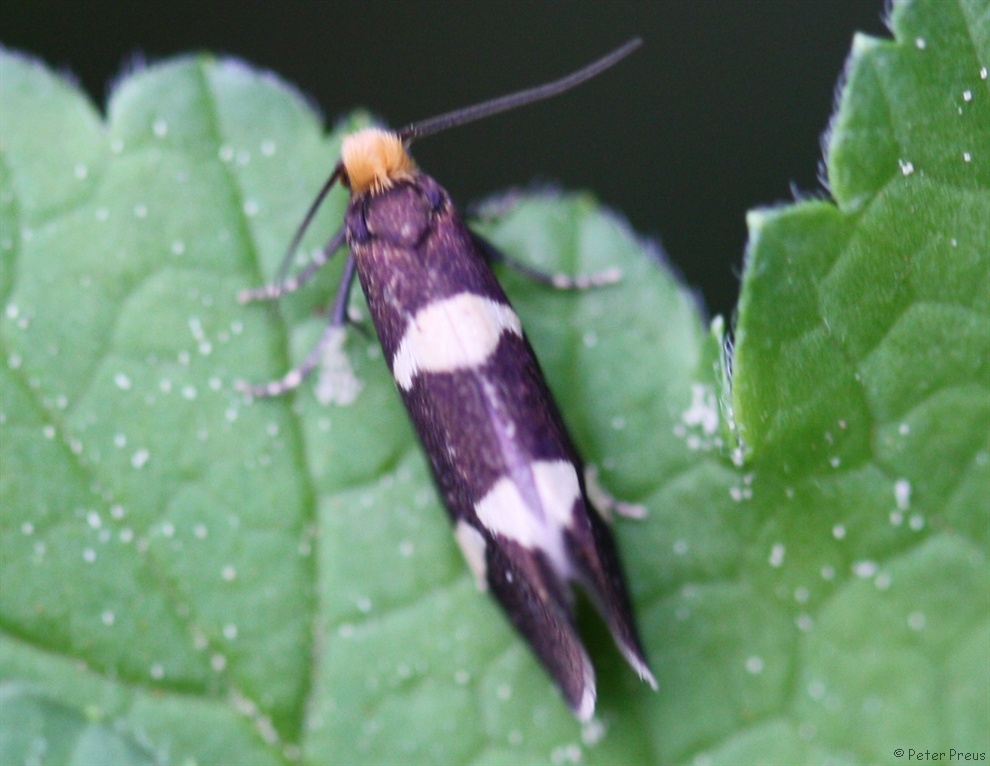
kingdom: Animalia
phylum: Arthropoda
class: Insecta
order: Lepidoptera
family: Incurvariidae
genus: Incurvaria
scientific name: Incurvaria capittella
